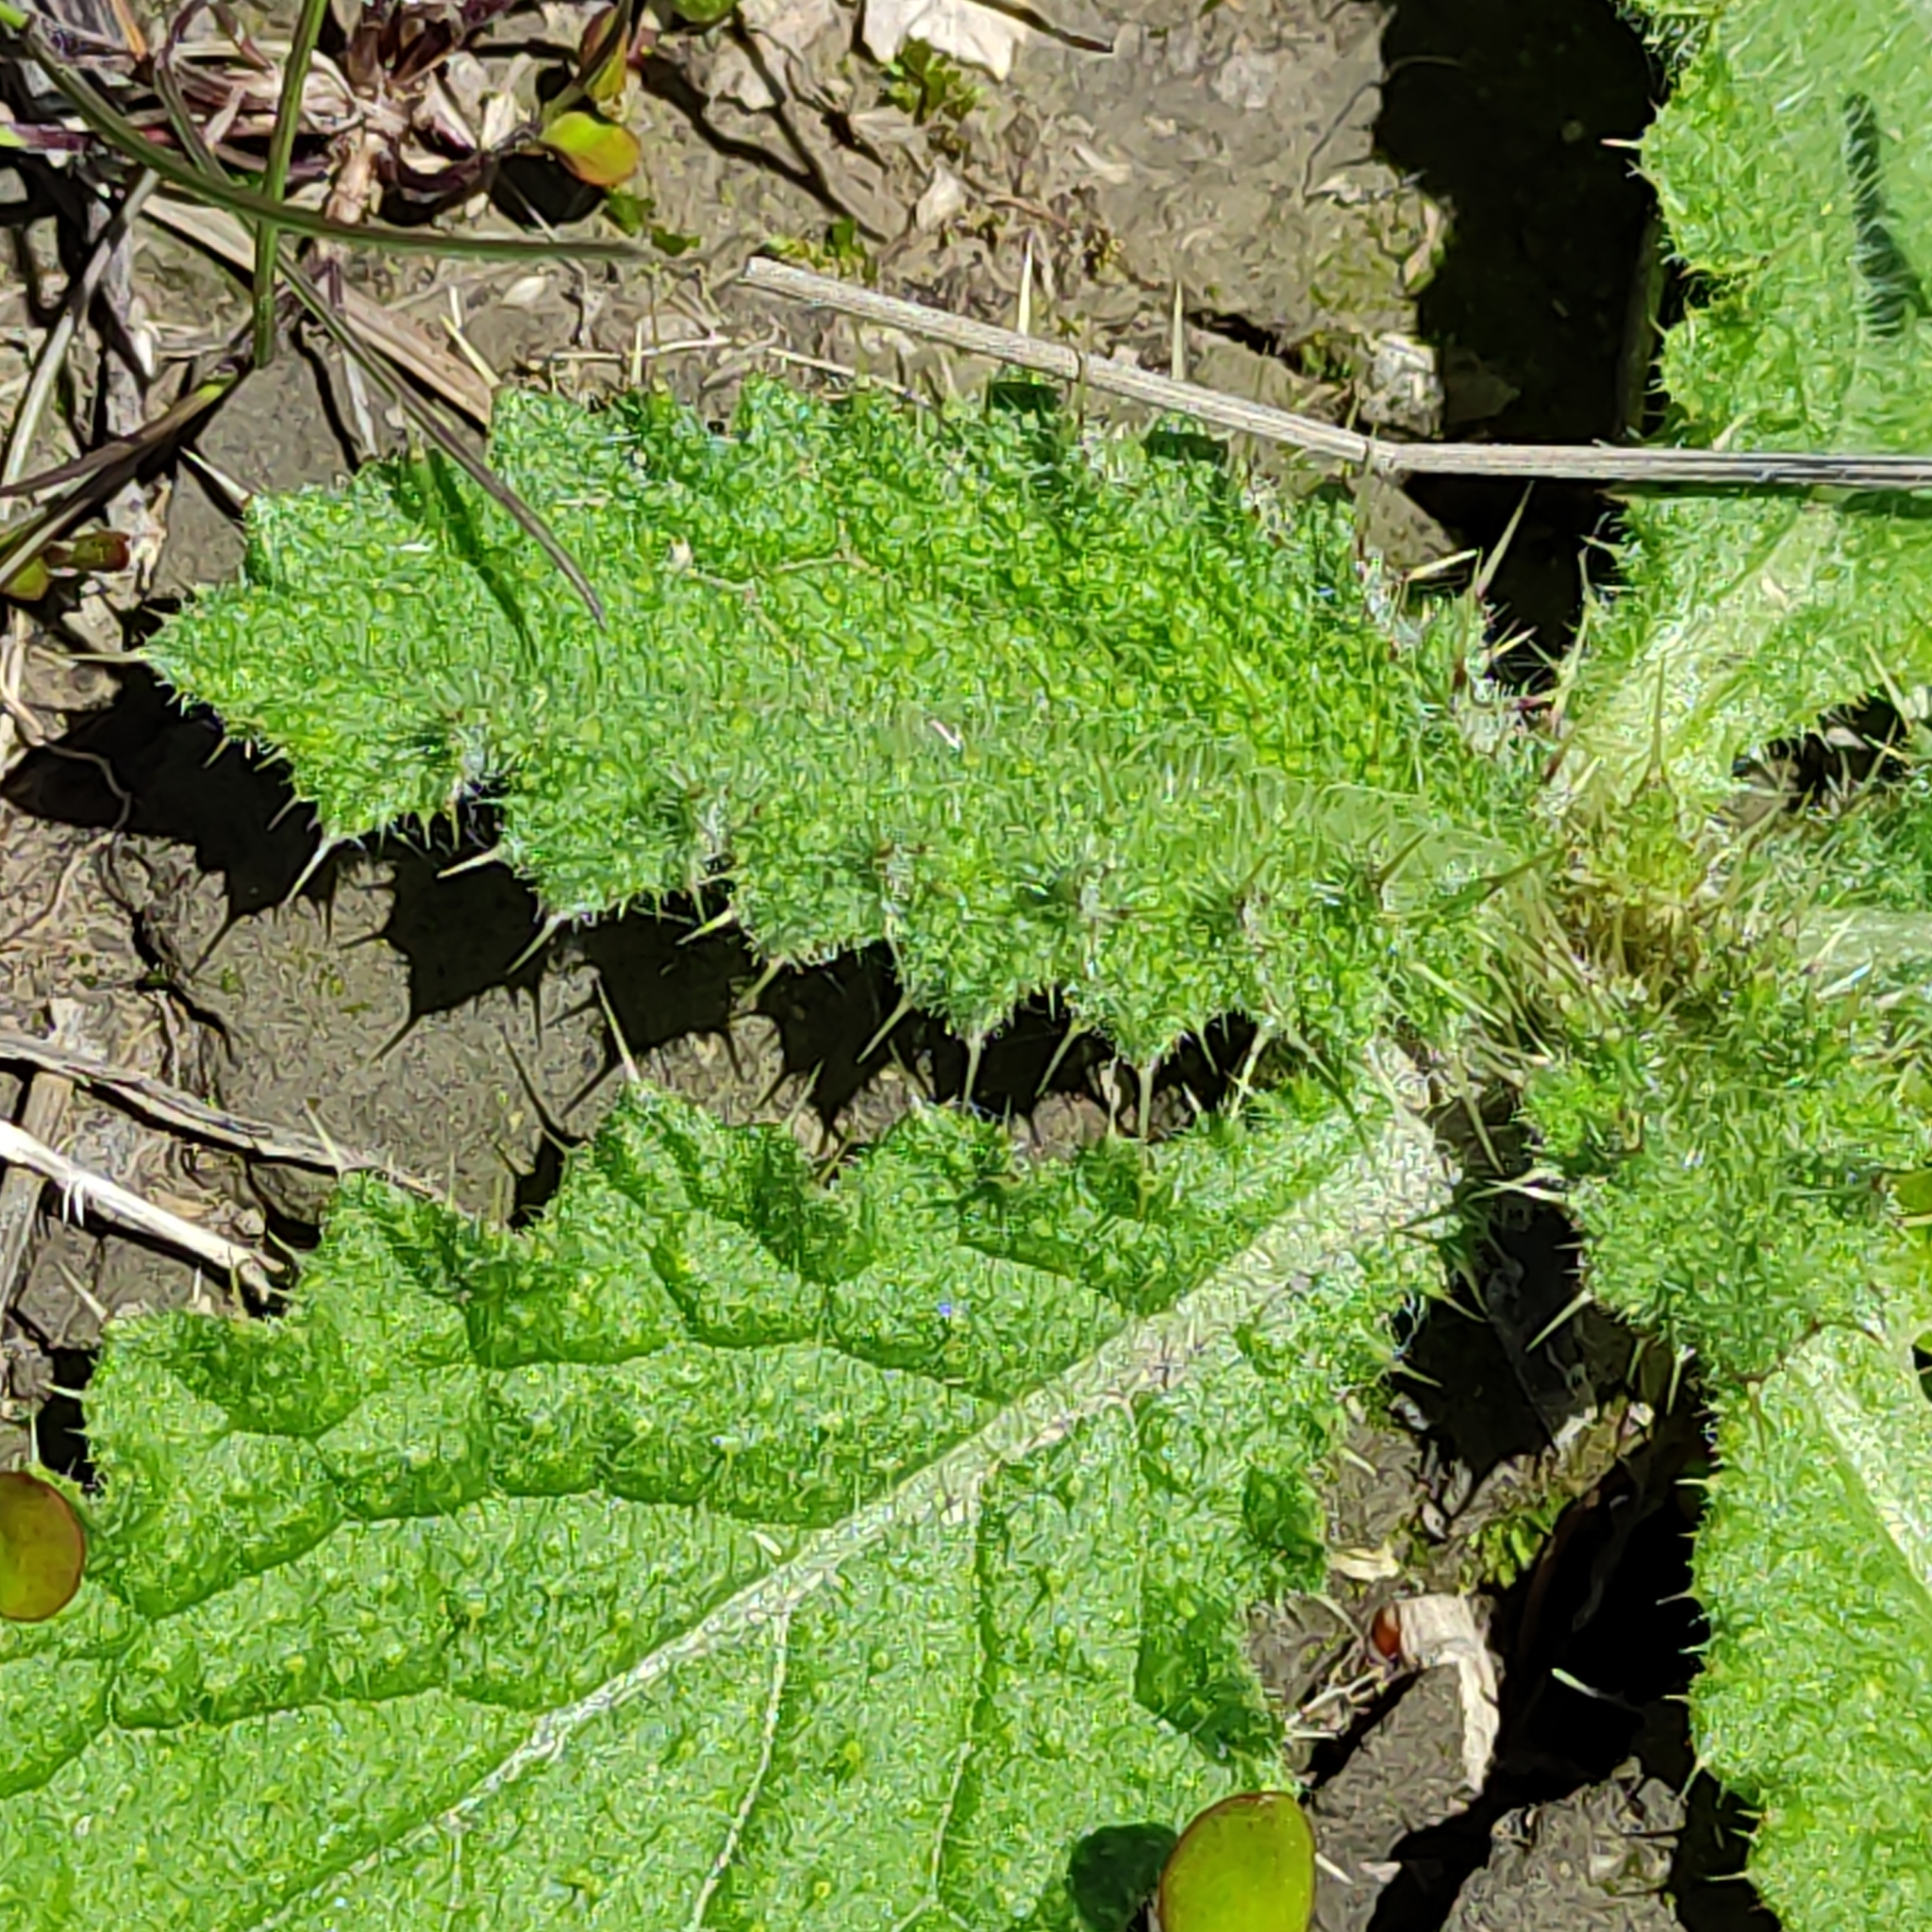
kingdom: Plantae
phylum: Tracheophyta
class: Magnoliopsida
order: Asterales
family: Asteraceae
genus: Cirsium
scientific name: Cirsium vulgare
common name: Bull thistle
